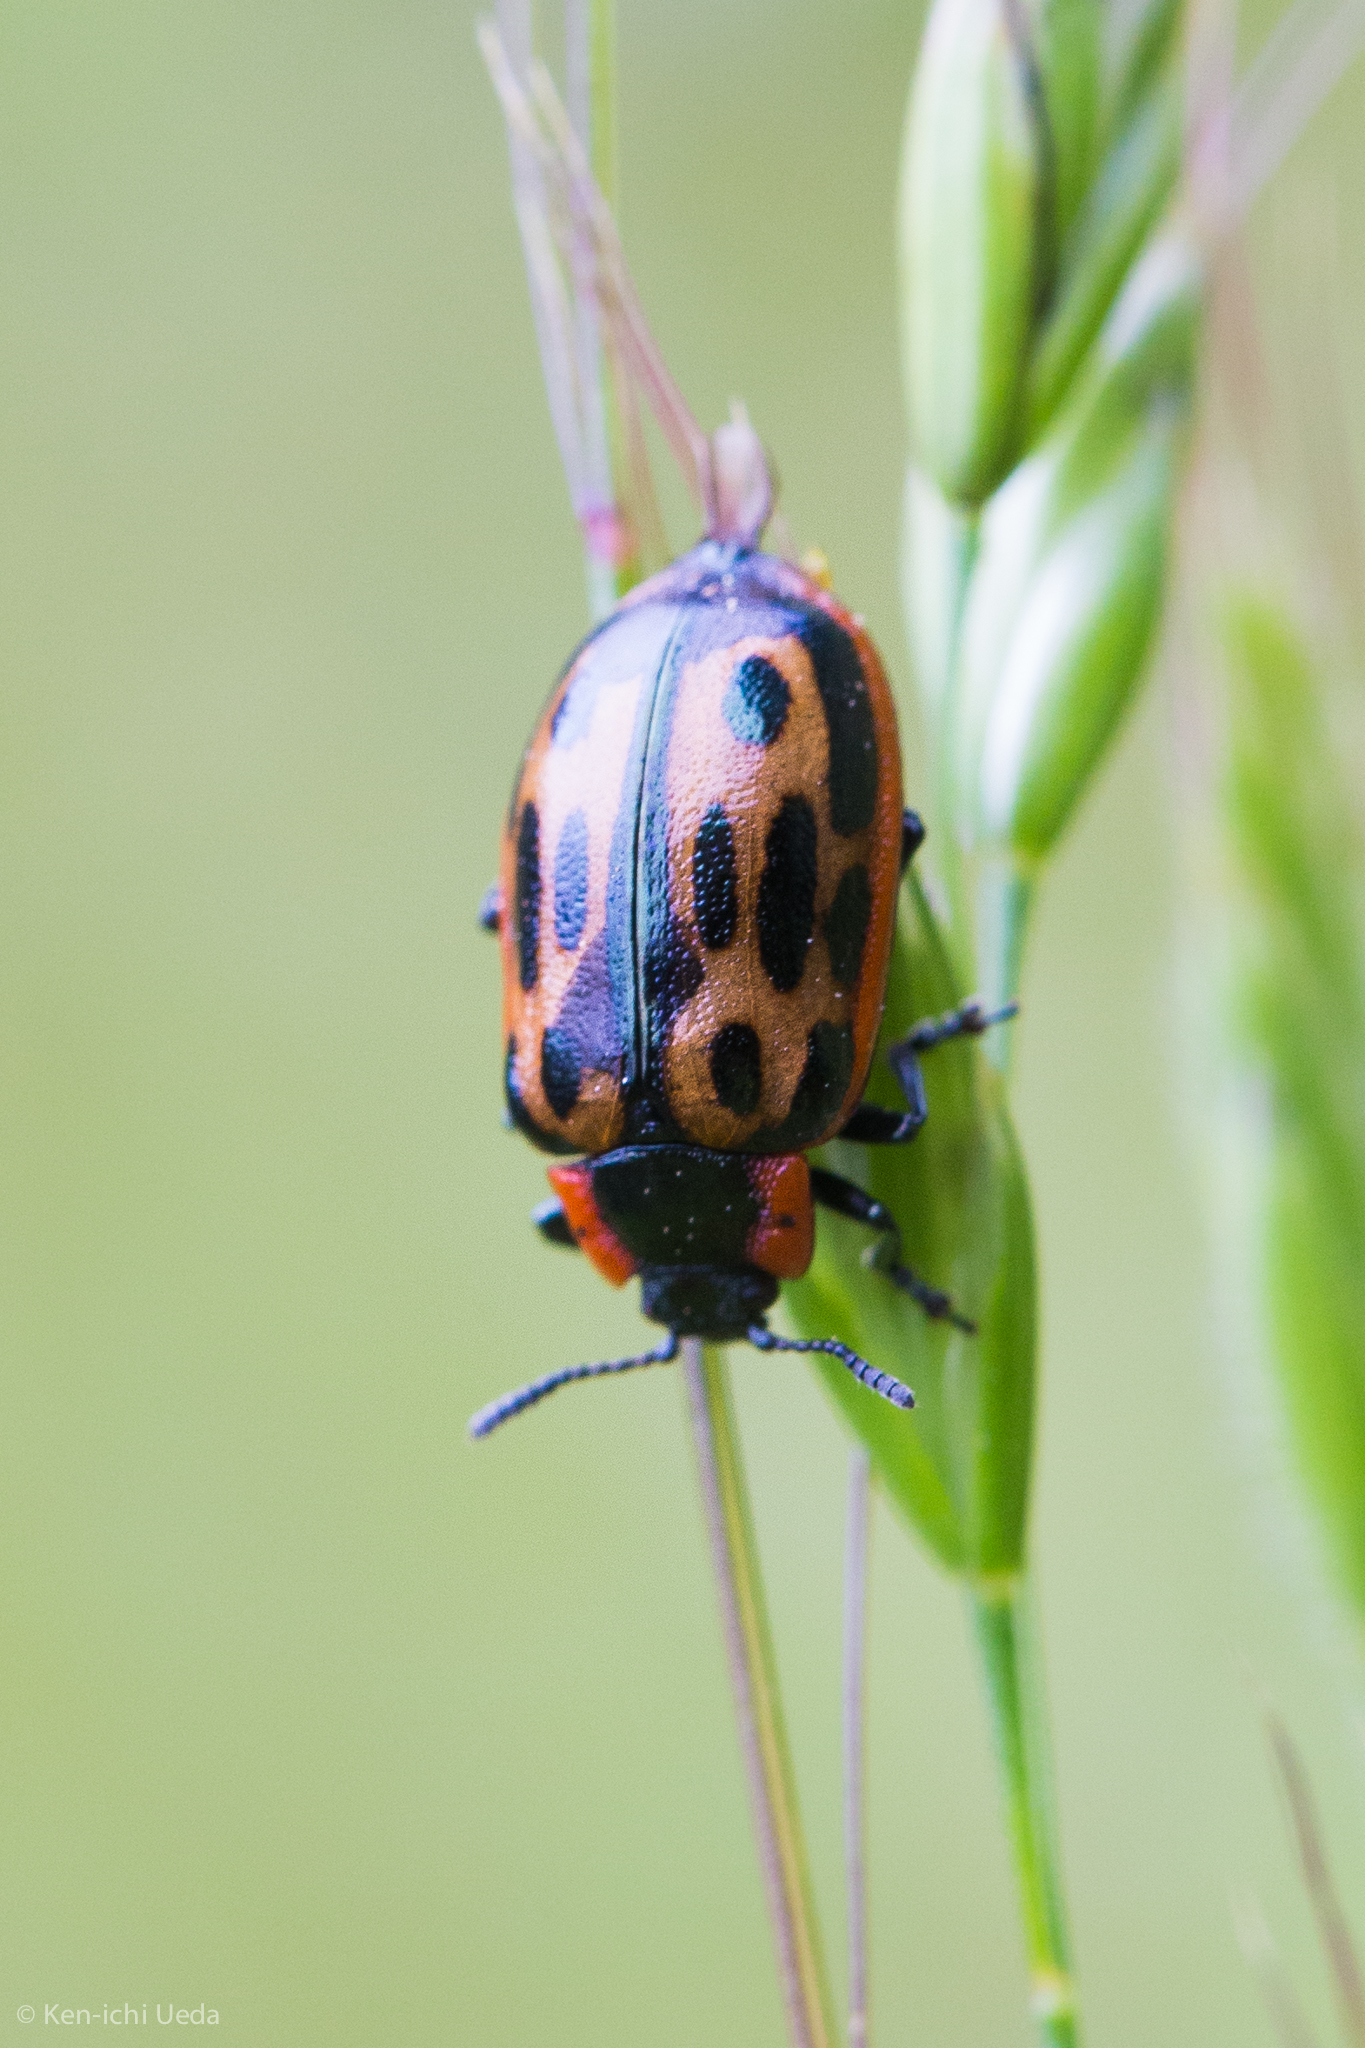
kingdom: Animalia
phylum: Arthropoda
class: Insecta
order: Coleoptera
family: Chrysomelidae
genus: Chrysomela
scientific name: Chrysomela confluens
